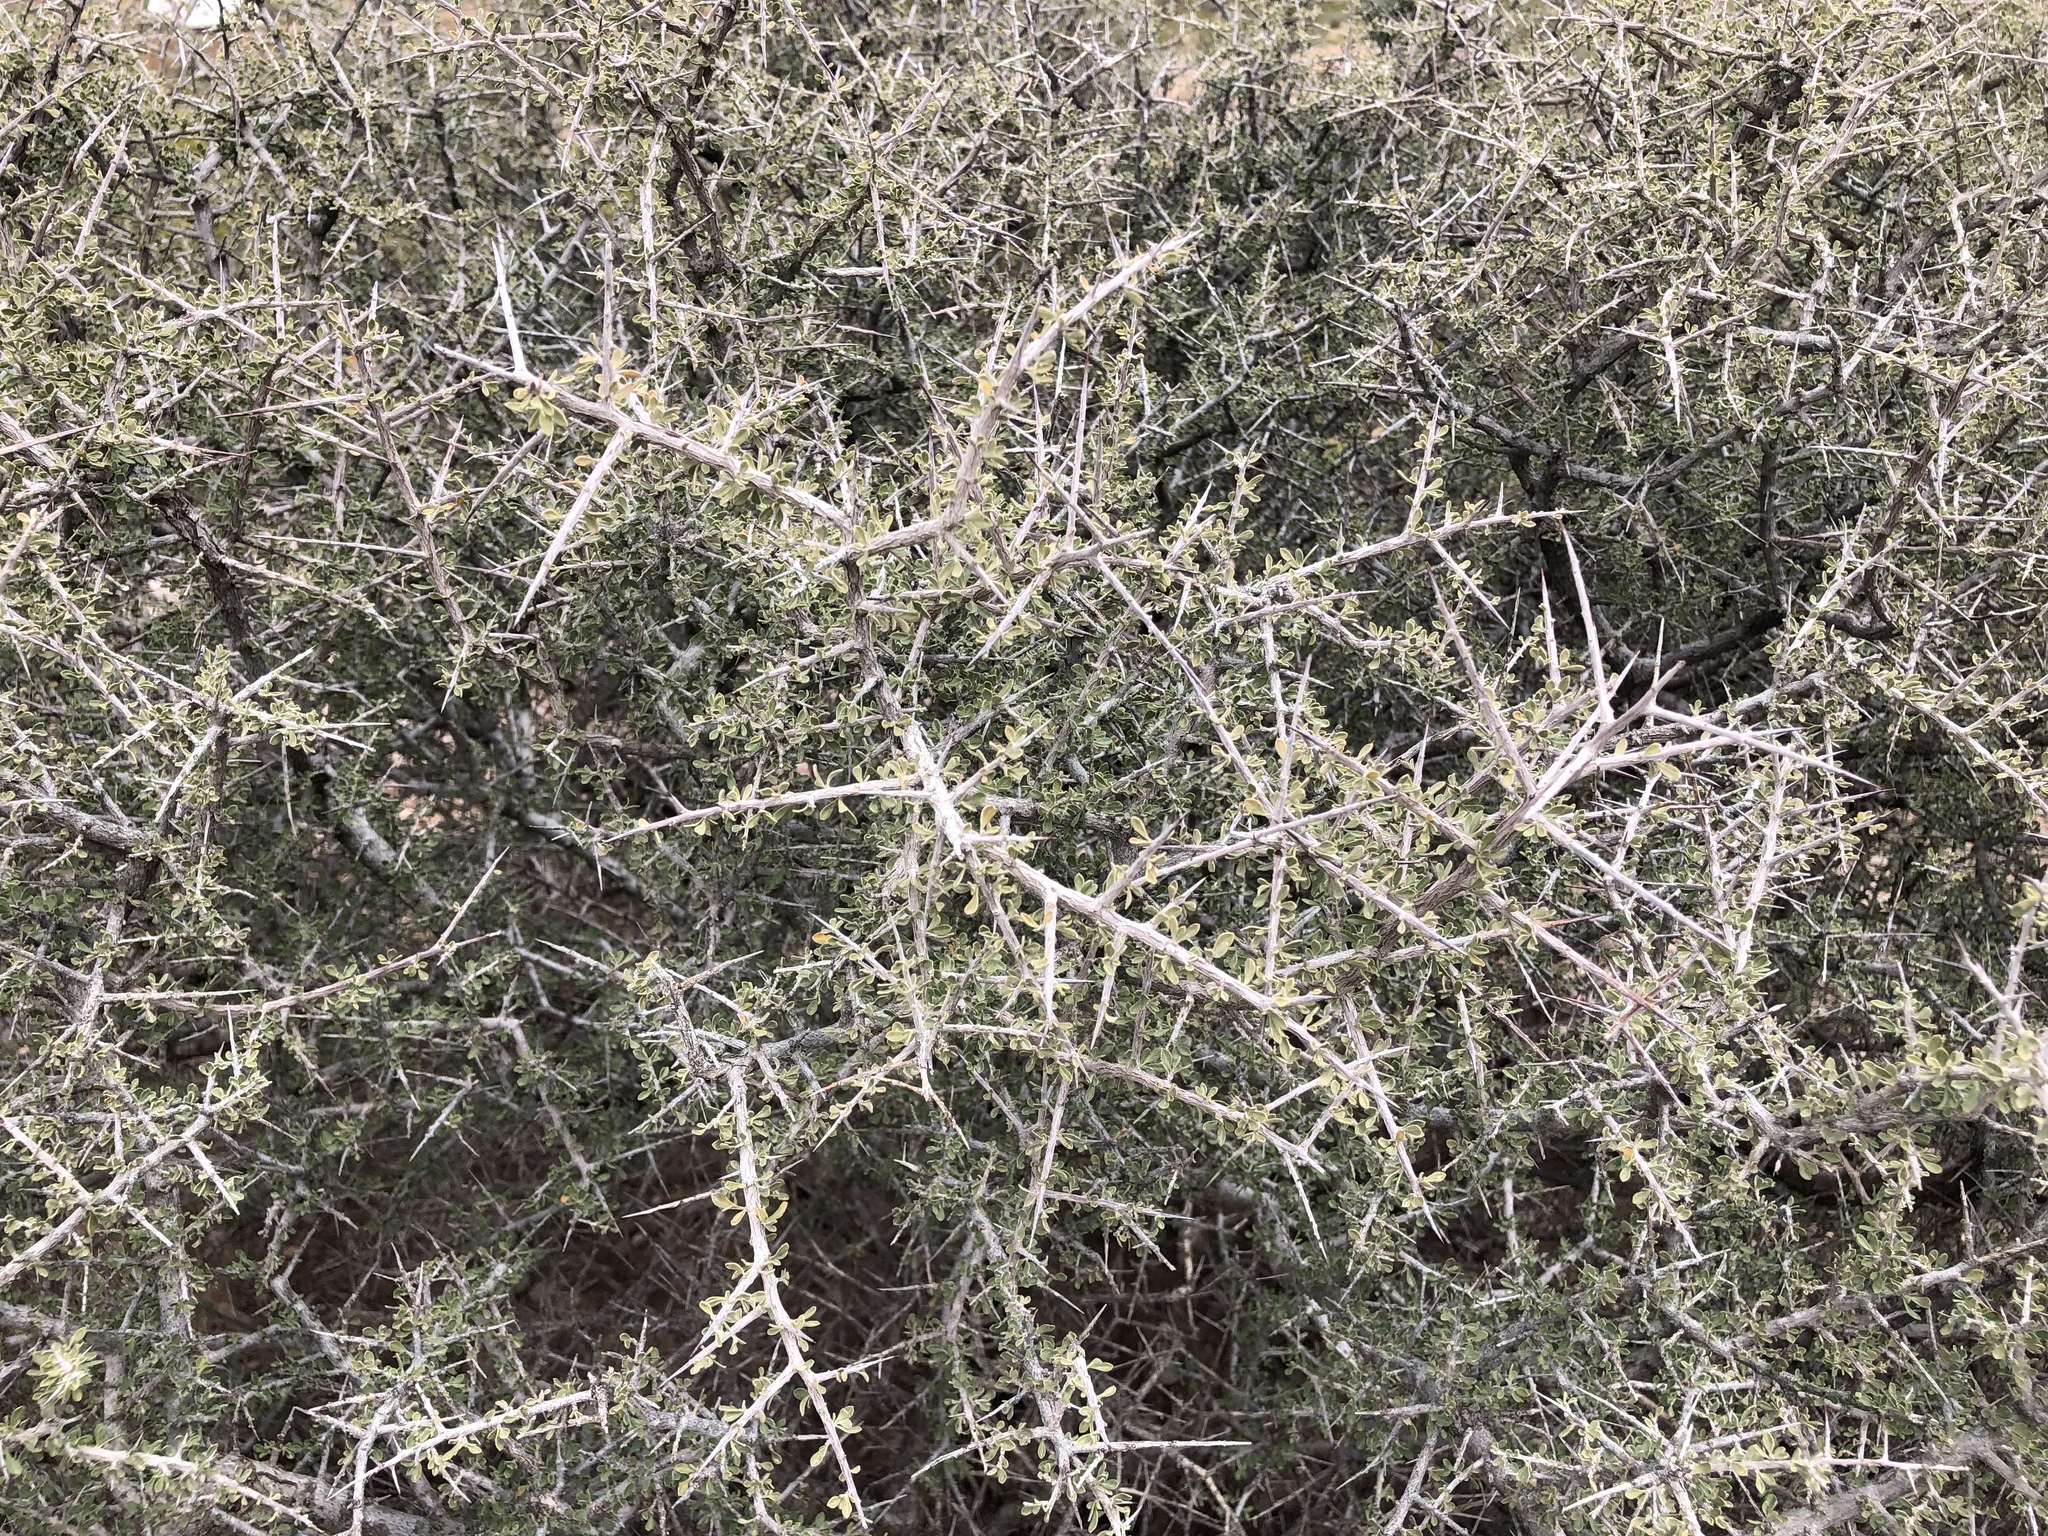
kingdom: Plantae
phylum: Tracheophyta
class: Magnoliopsida
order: Rosales
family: Rhamnaceae
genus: Condalia
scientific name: Condalia warnockii
